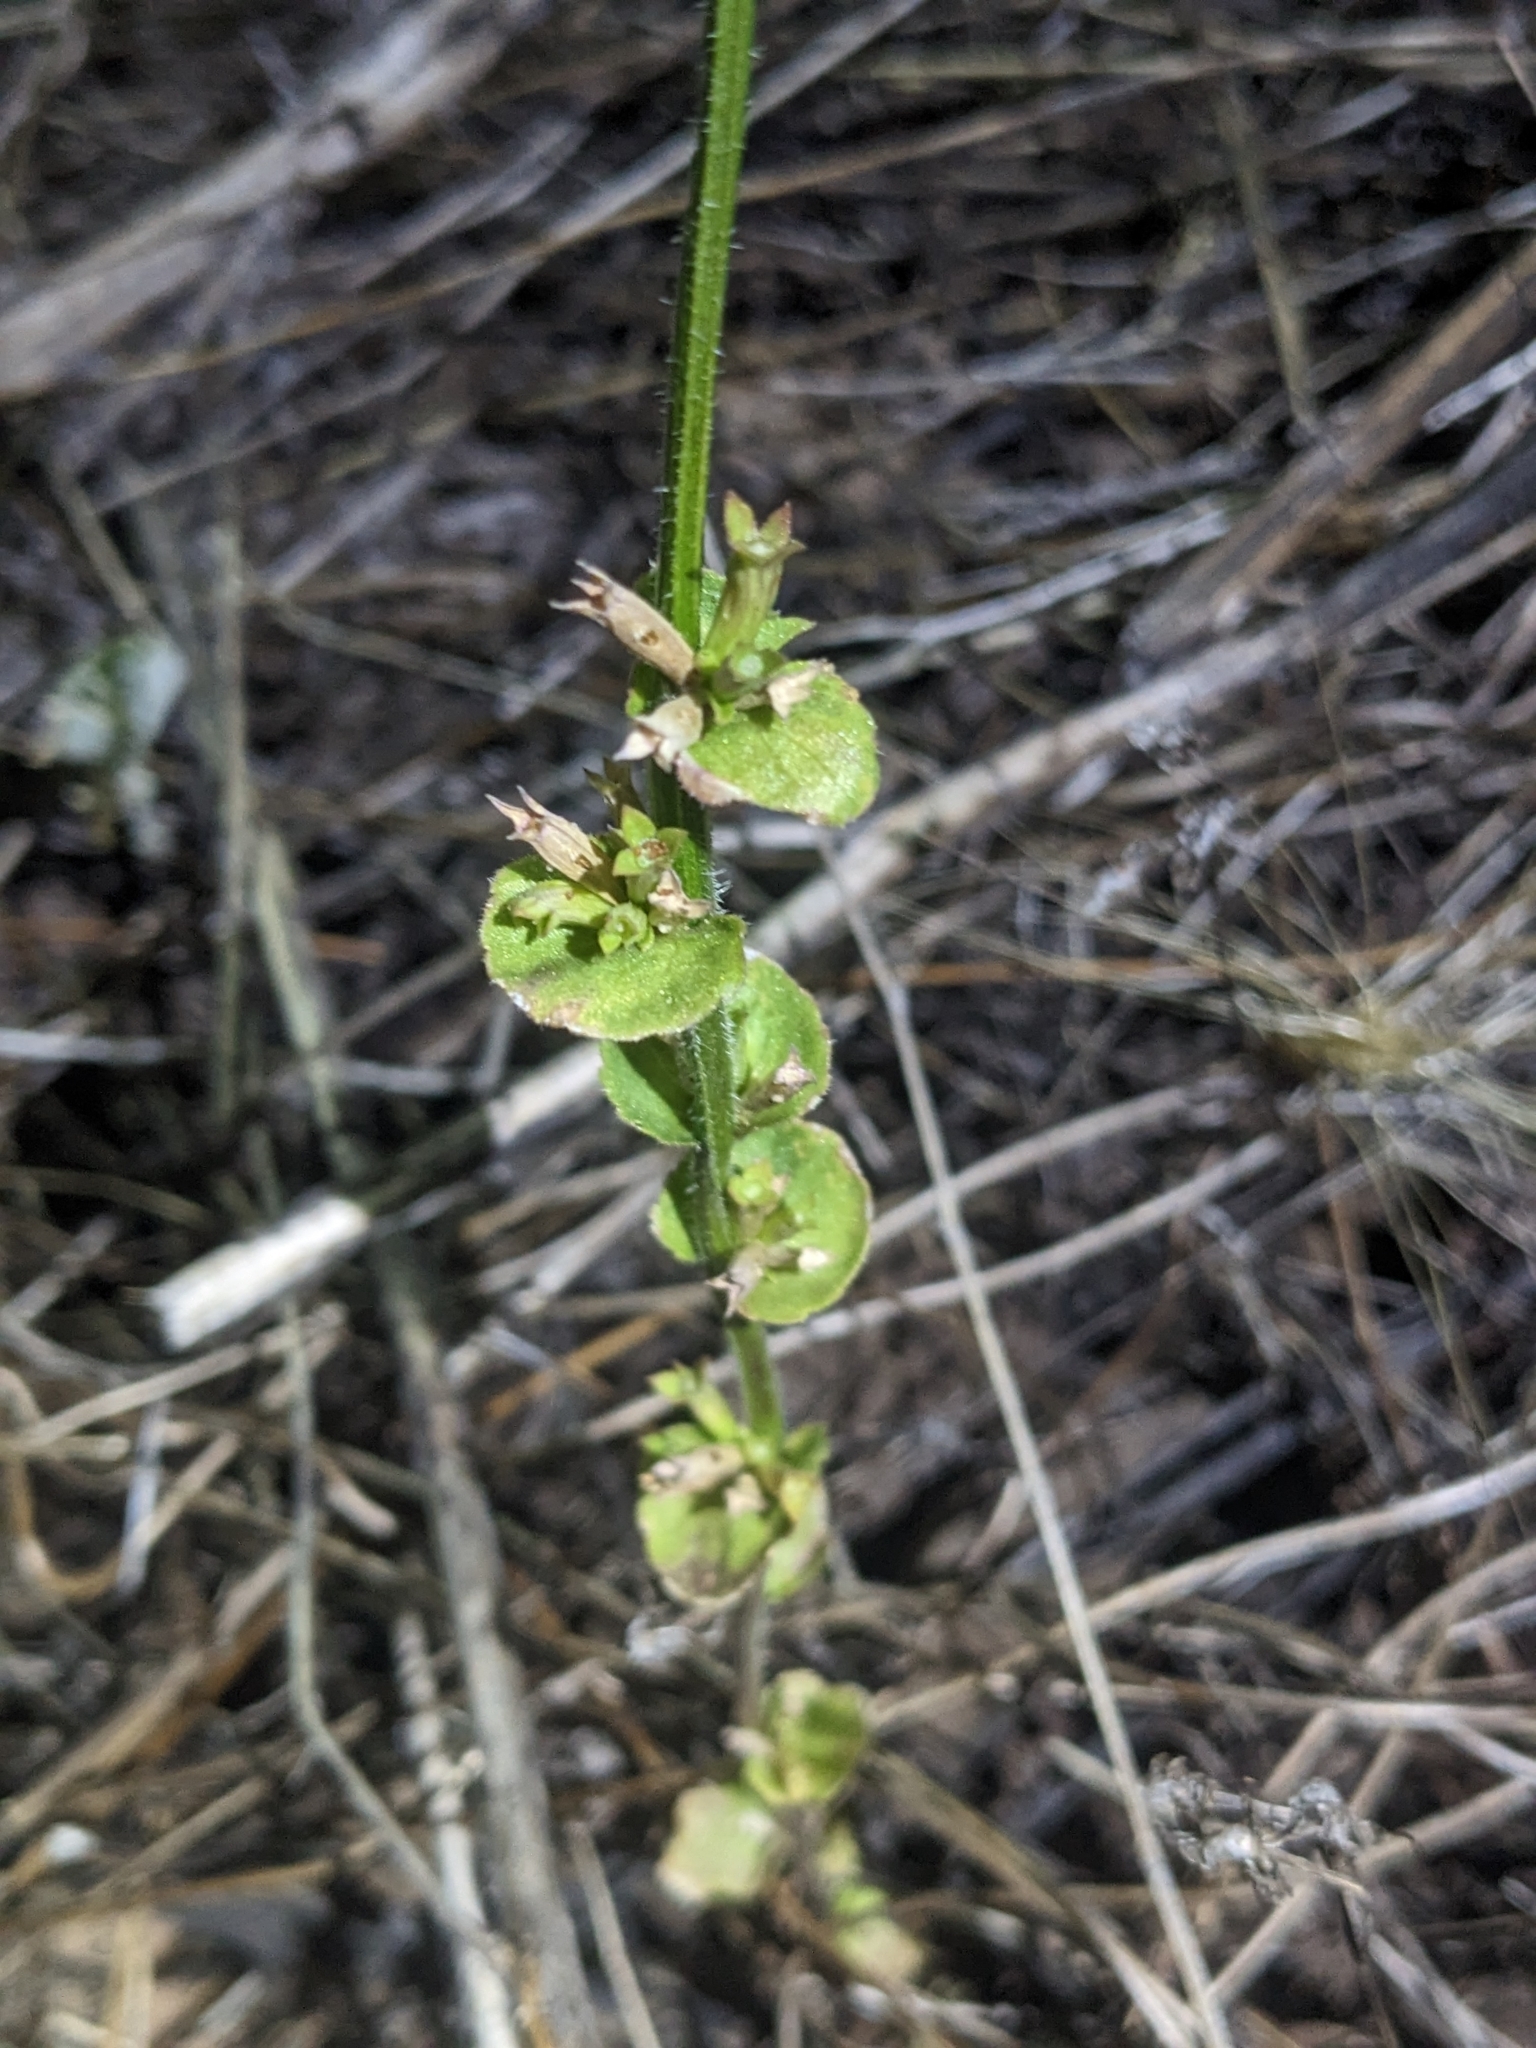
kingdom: Plantae
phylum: Tracheophyta
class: Magnoliopsida
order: Asterales
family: Campanulaceae
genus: Triodanis
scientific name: Triodanis perfoliata
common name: Clasping venus' looking-glass
